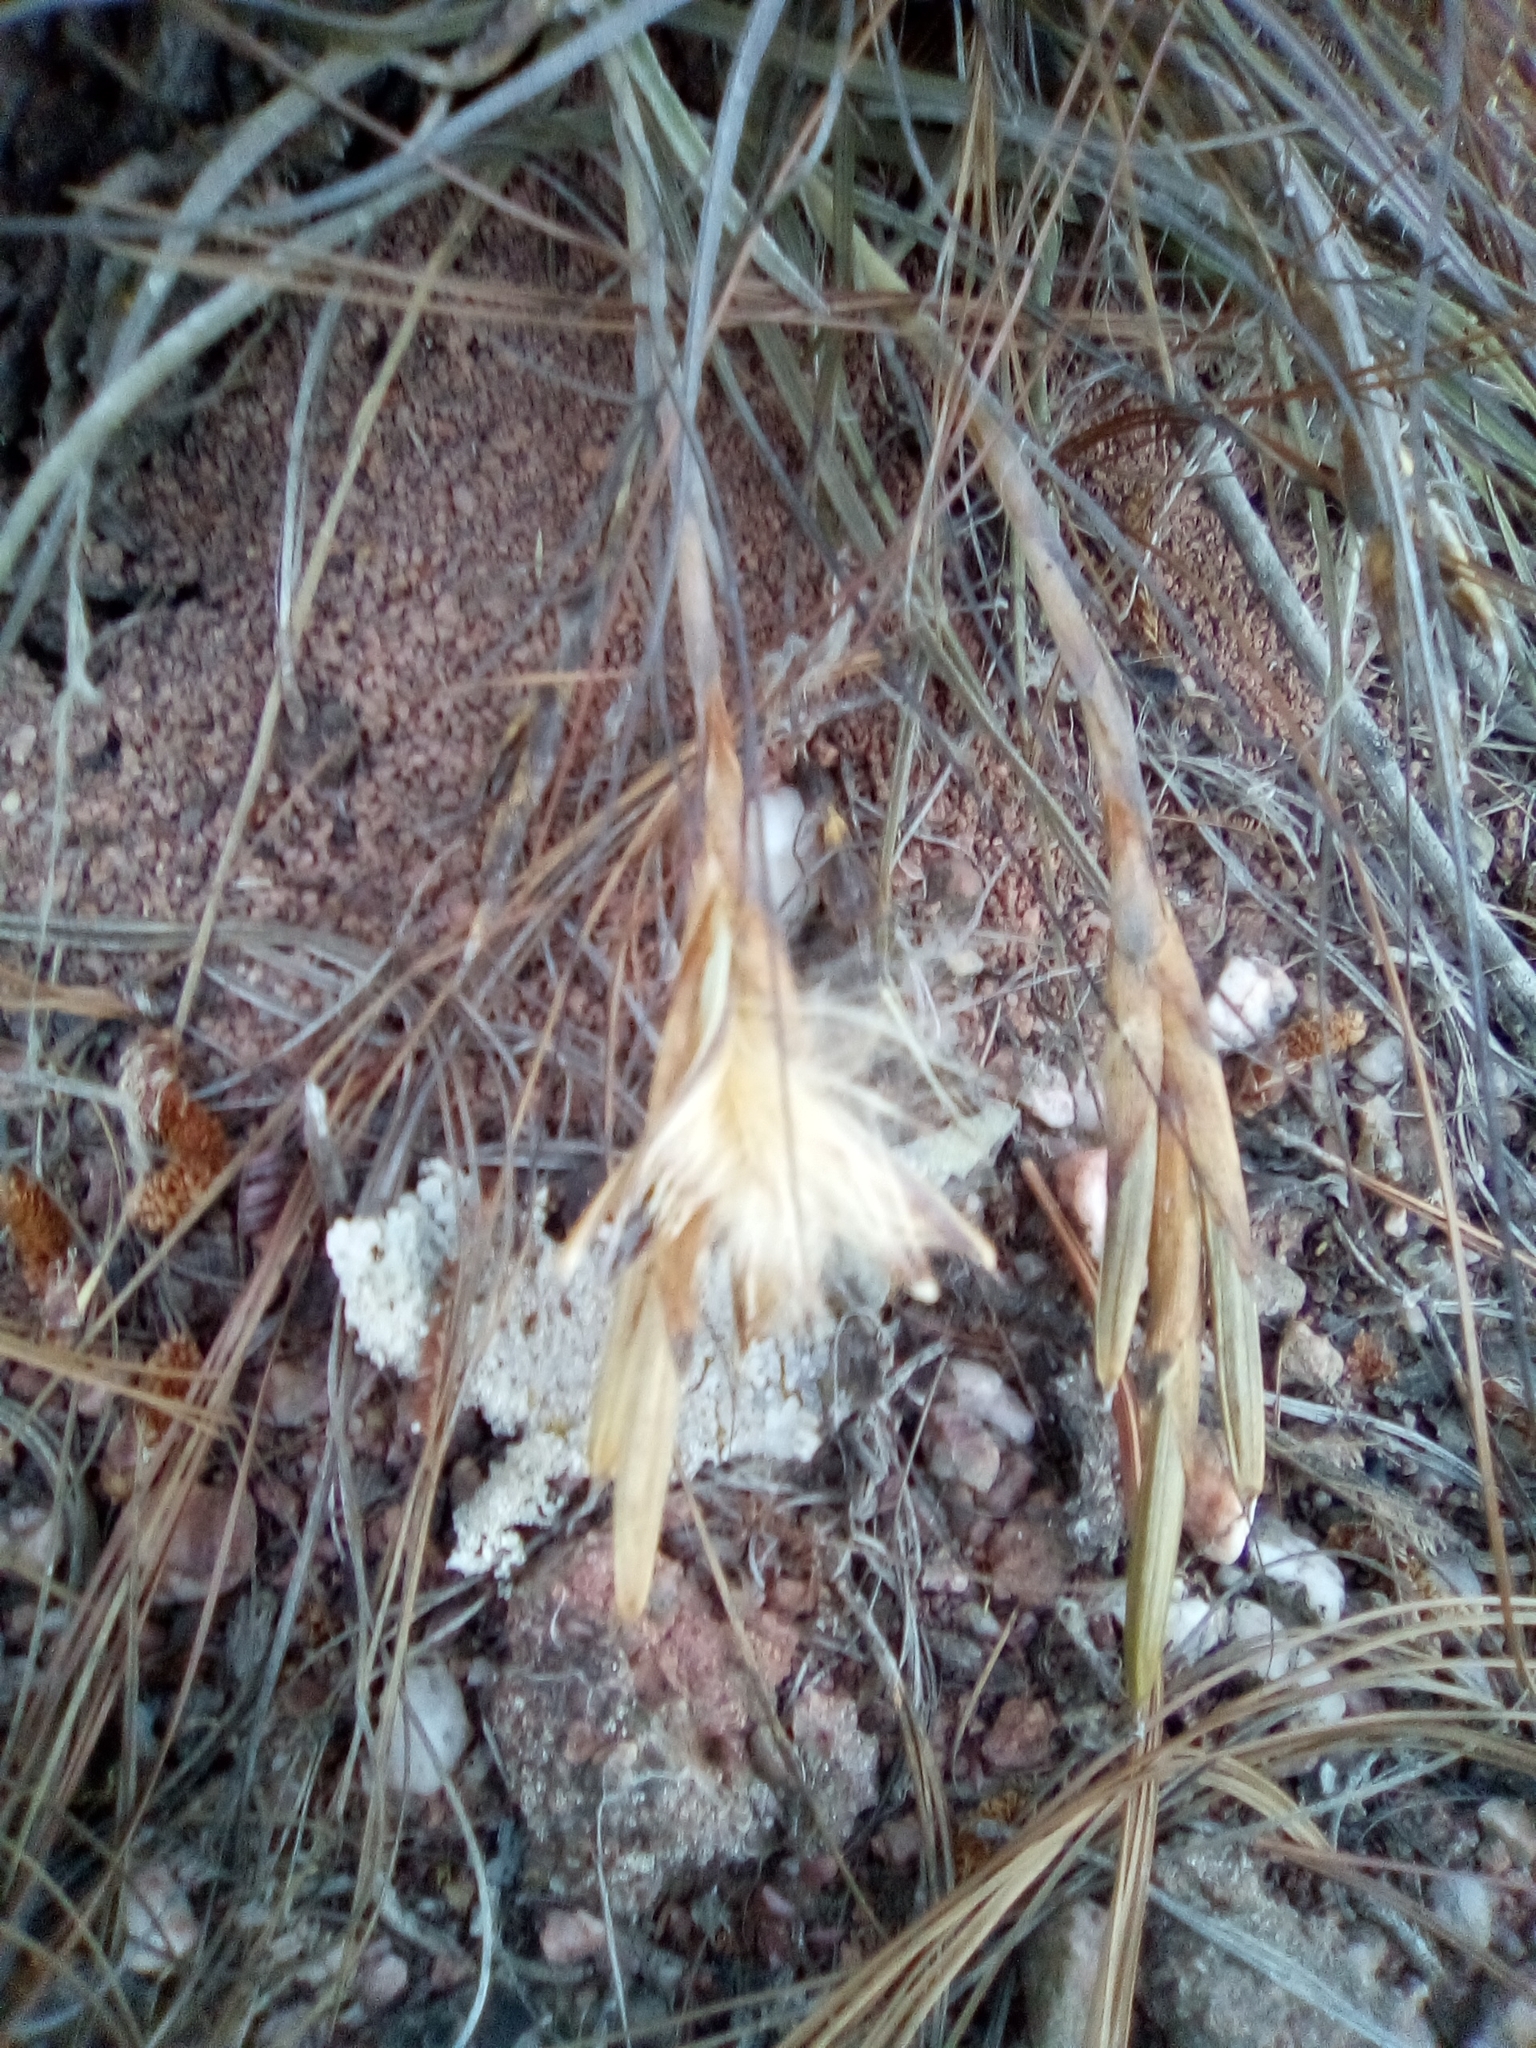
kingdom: Plantae
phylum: Tracheophyta
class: Liliopsida
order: Poales
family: Bromeliaceae
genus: Tillandsia
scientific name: Tillandsia schiedeana
